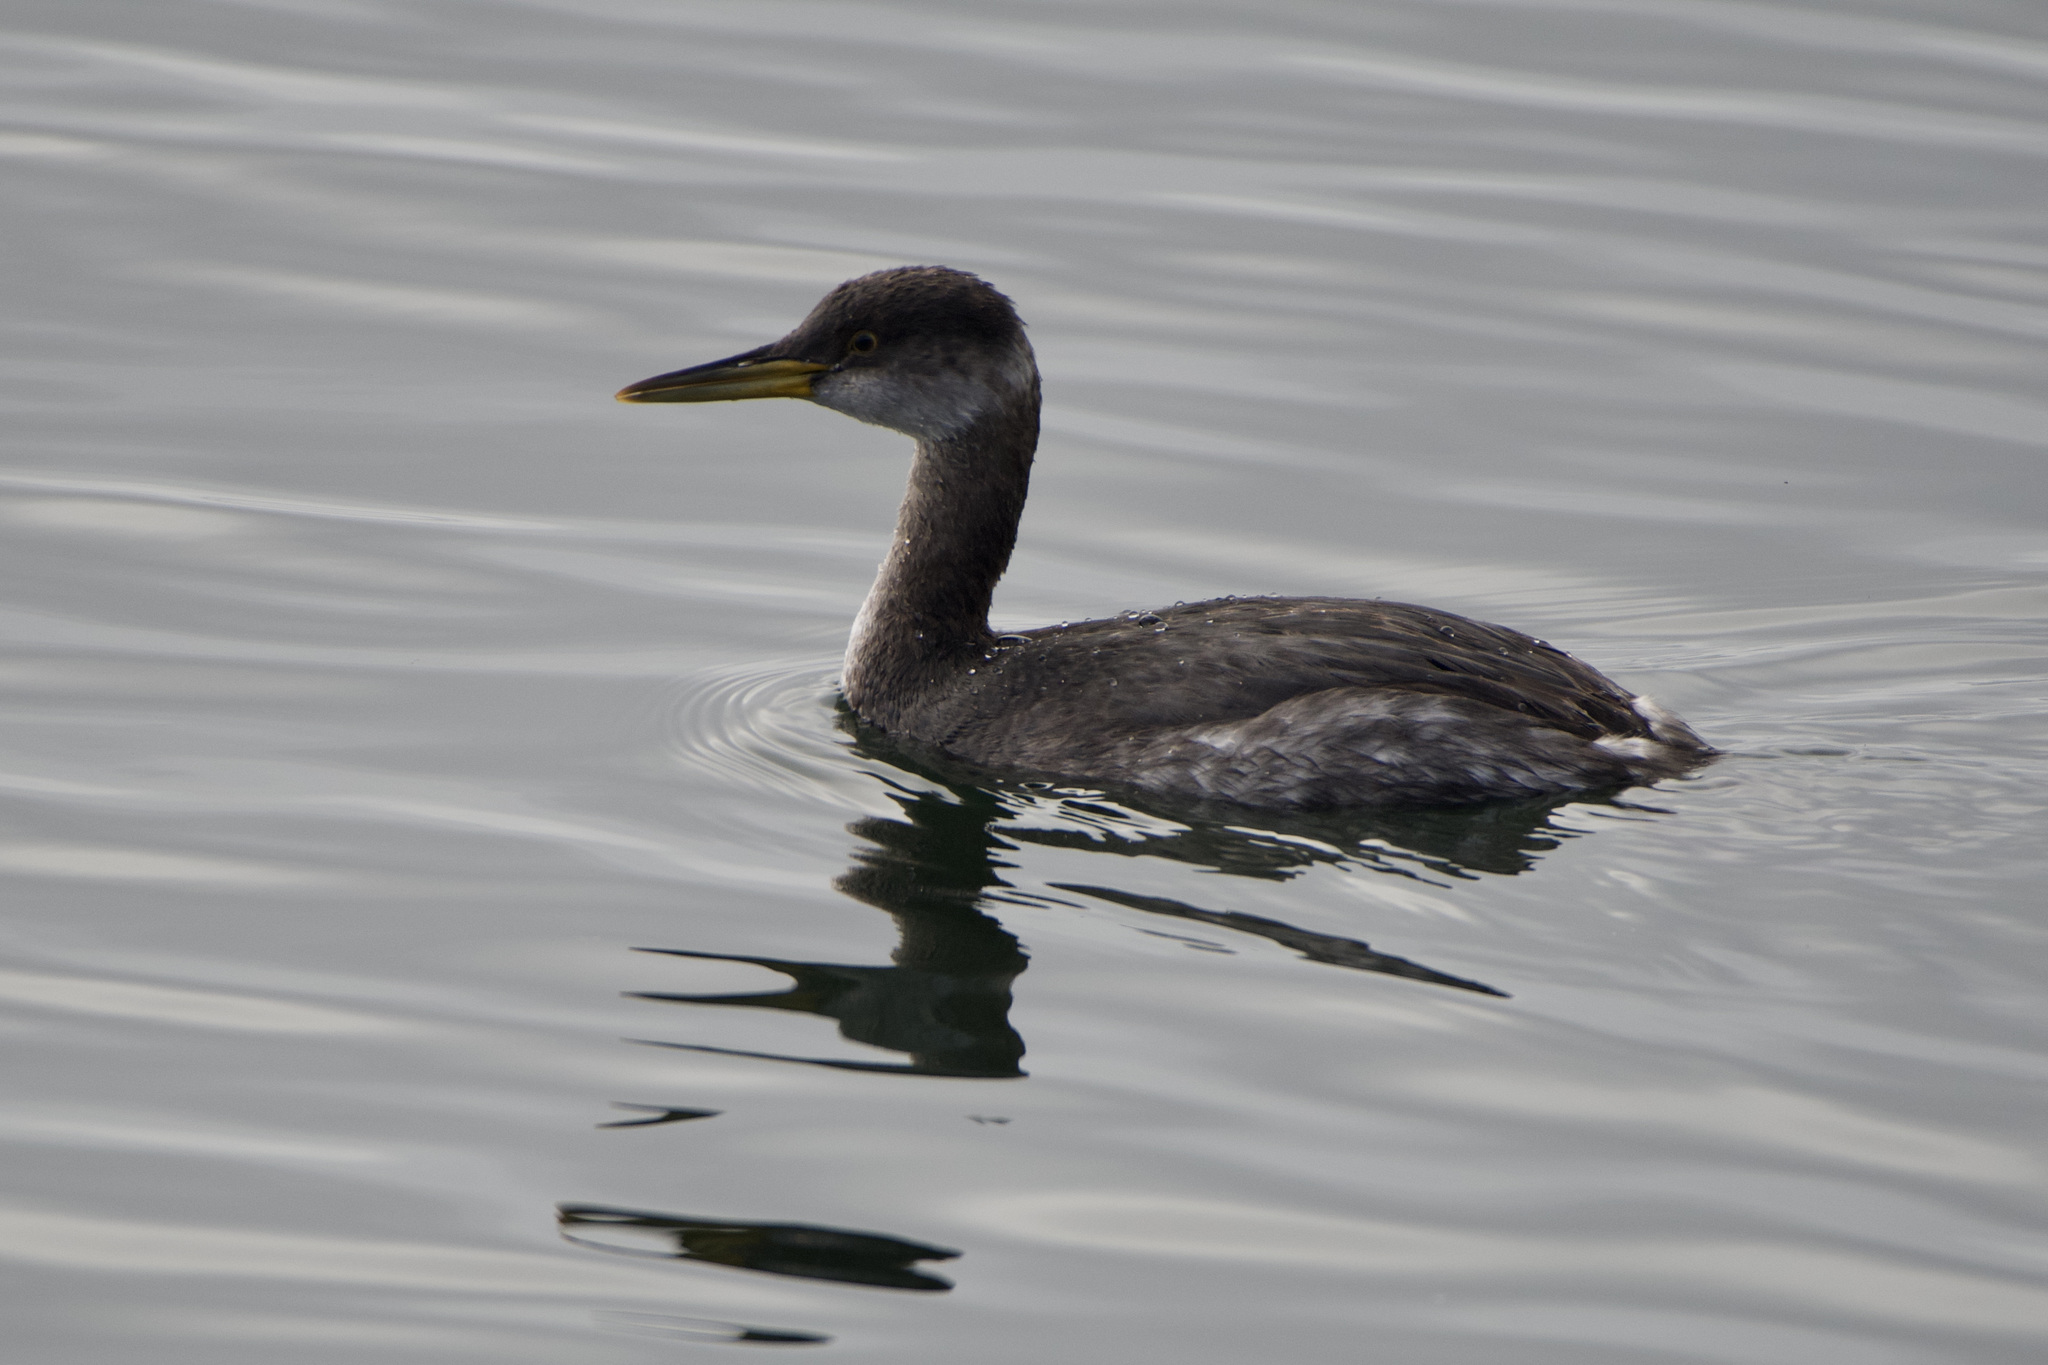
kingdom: Animalia
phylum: Chordata
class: Aves
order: Podicipediformes
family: Podicipedidae
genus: Podiceps
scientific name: Podiceps grisegena
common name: Red-necked grebe
